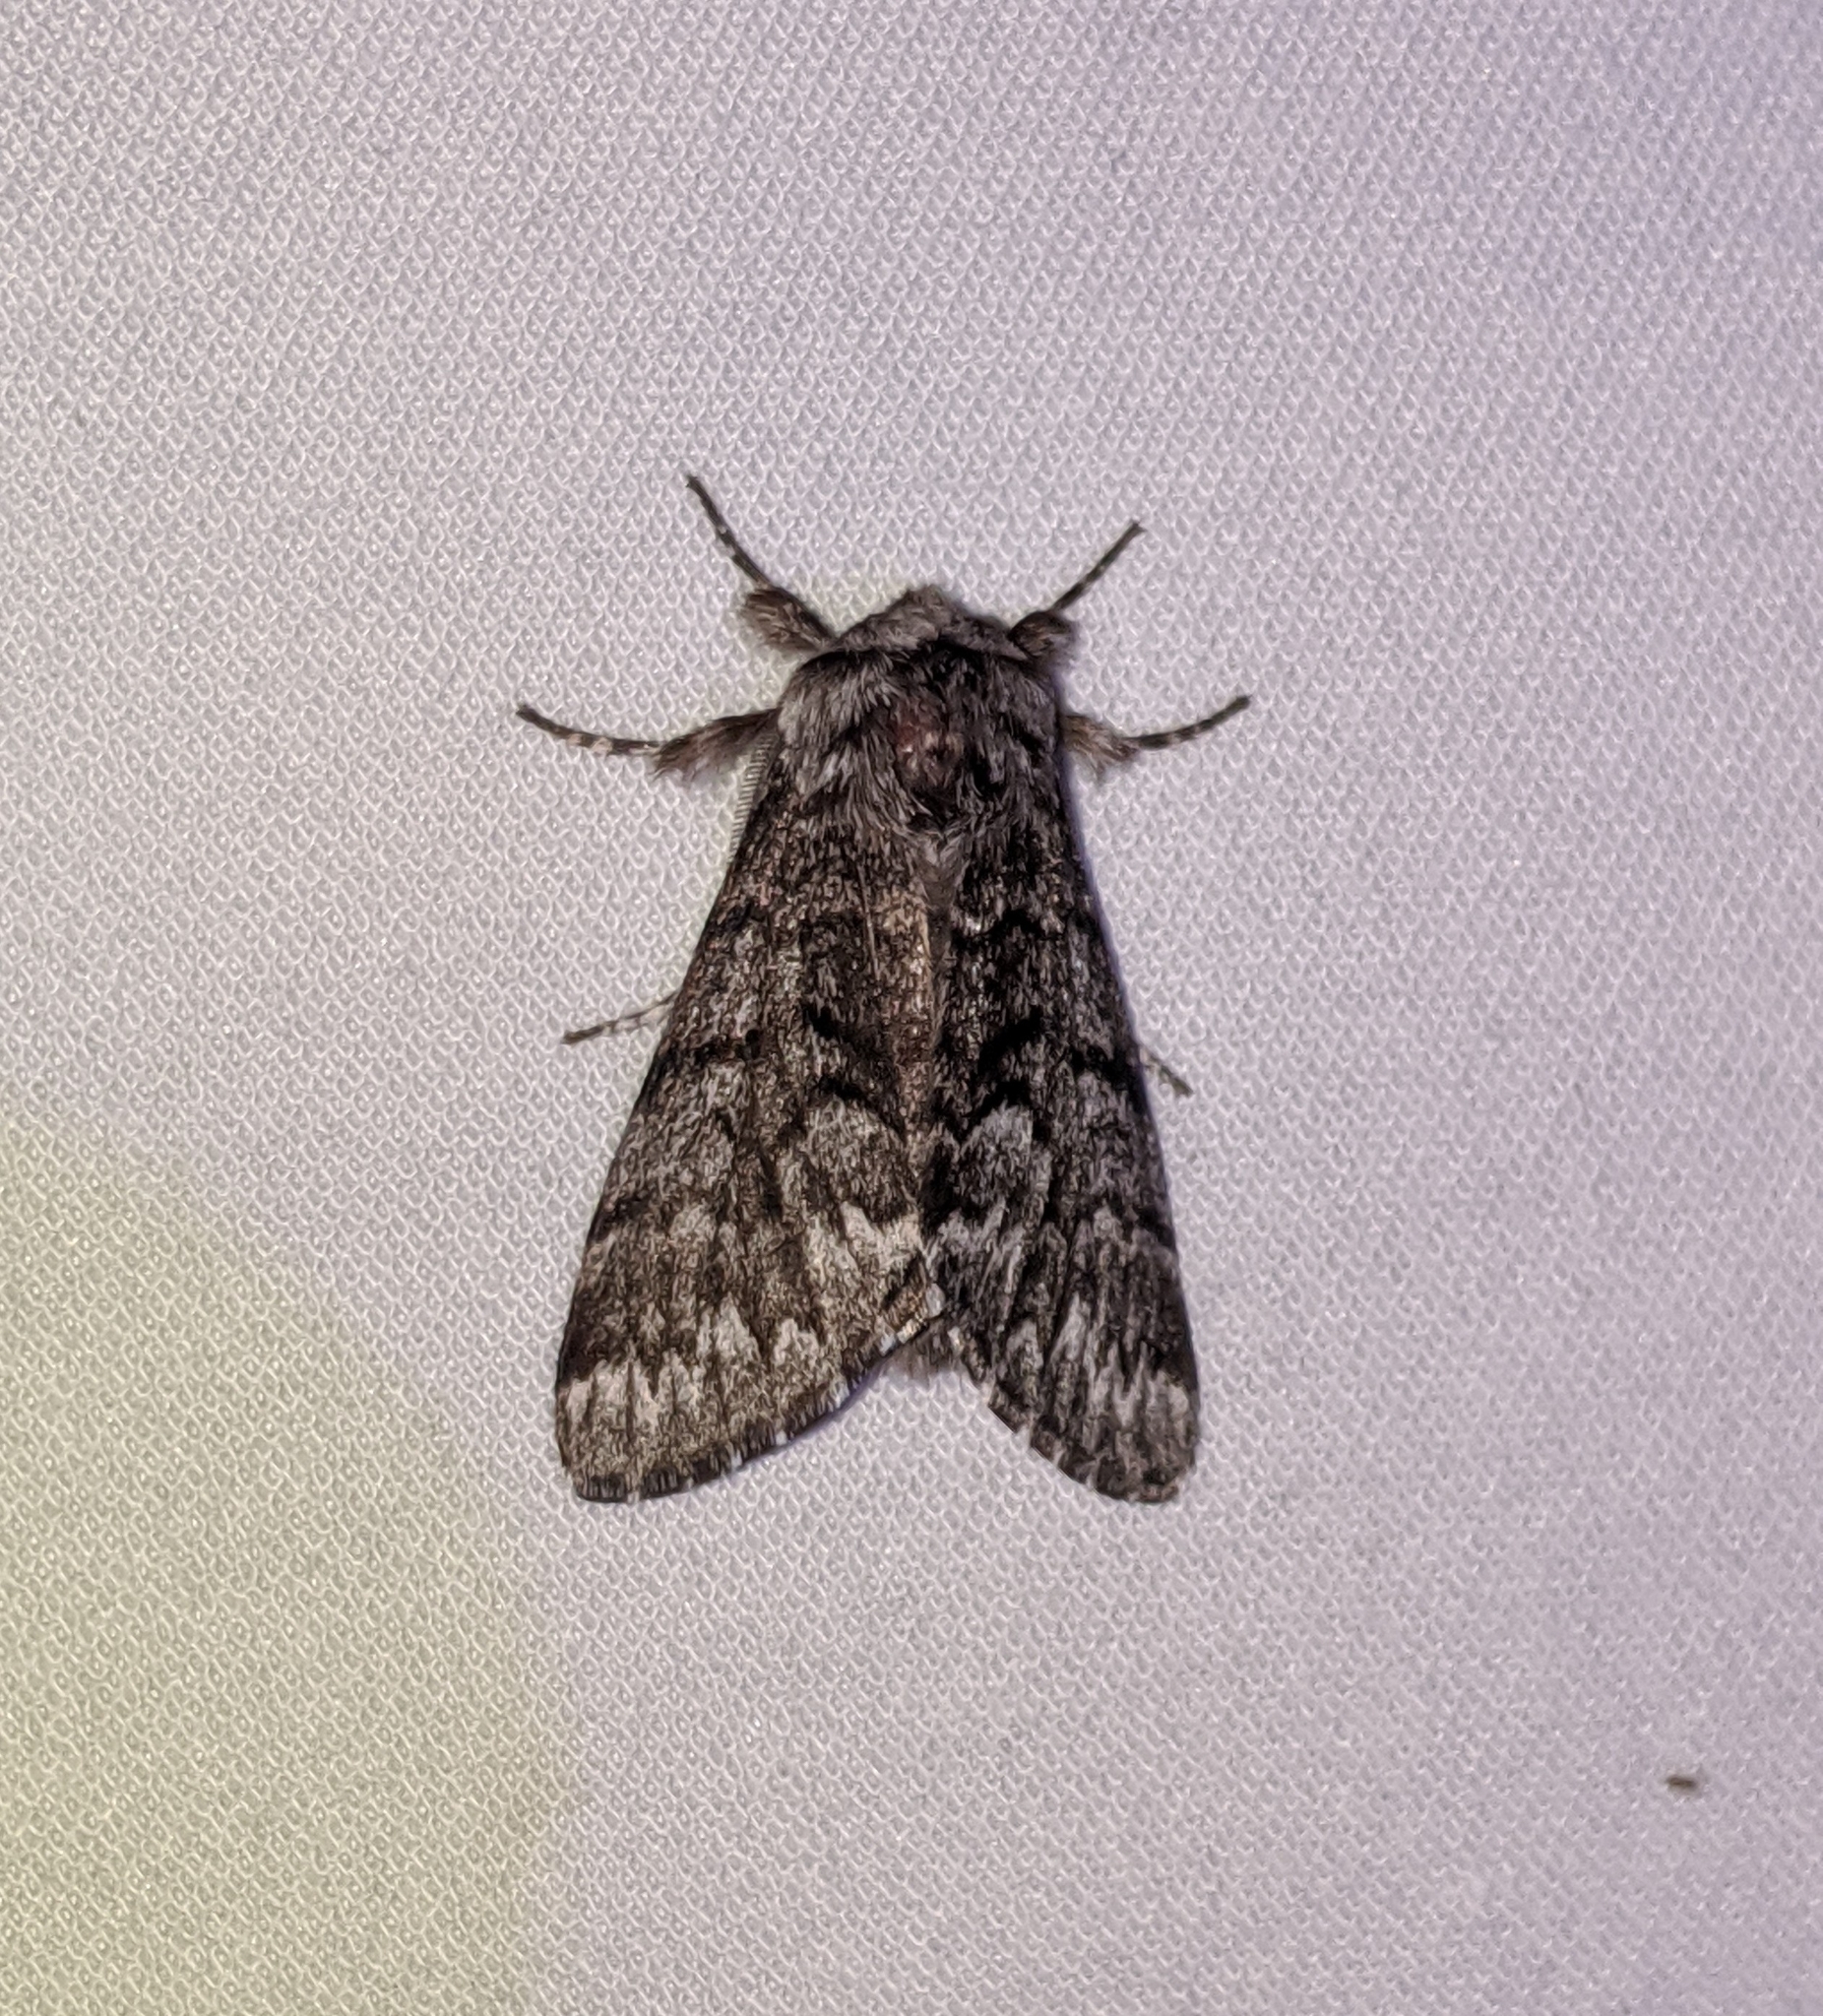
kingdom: Animalia
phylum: Arthropoda
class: Insecta
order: Lepidoptera
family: Noctuidae
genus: Panthea
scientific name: Panthea virginarius
